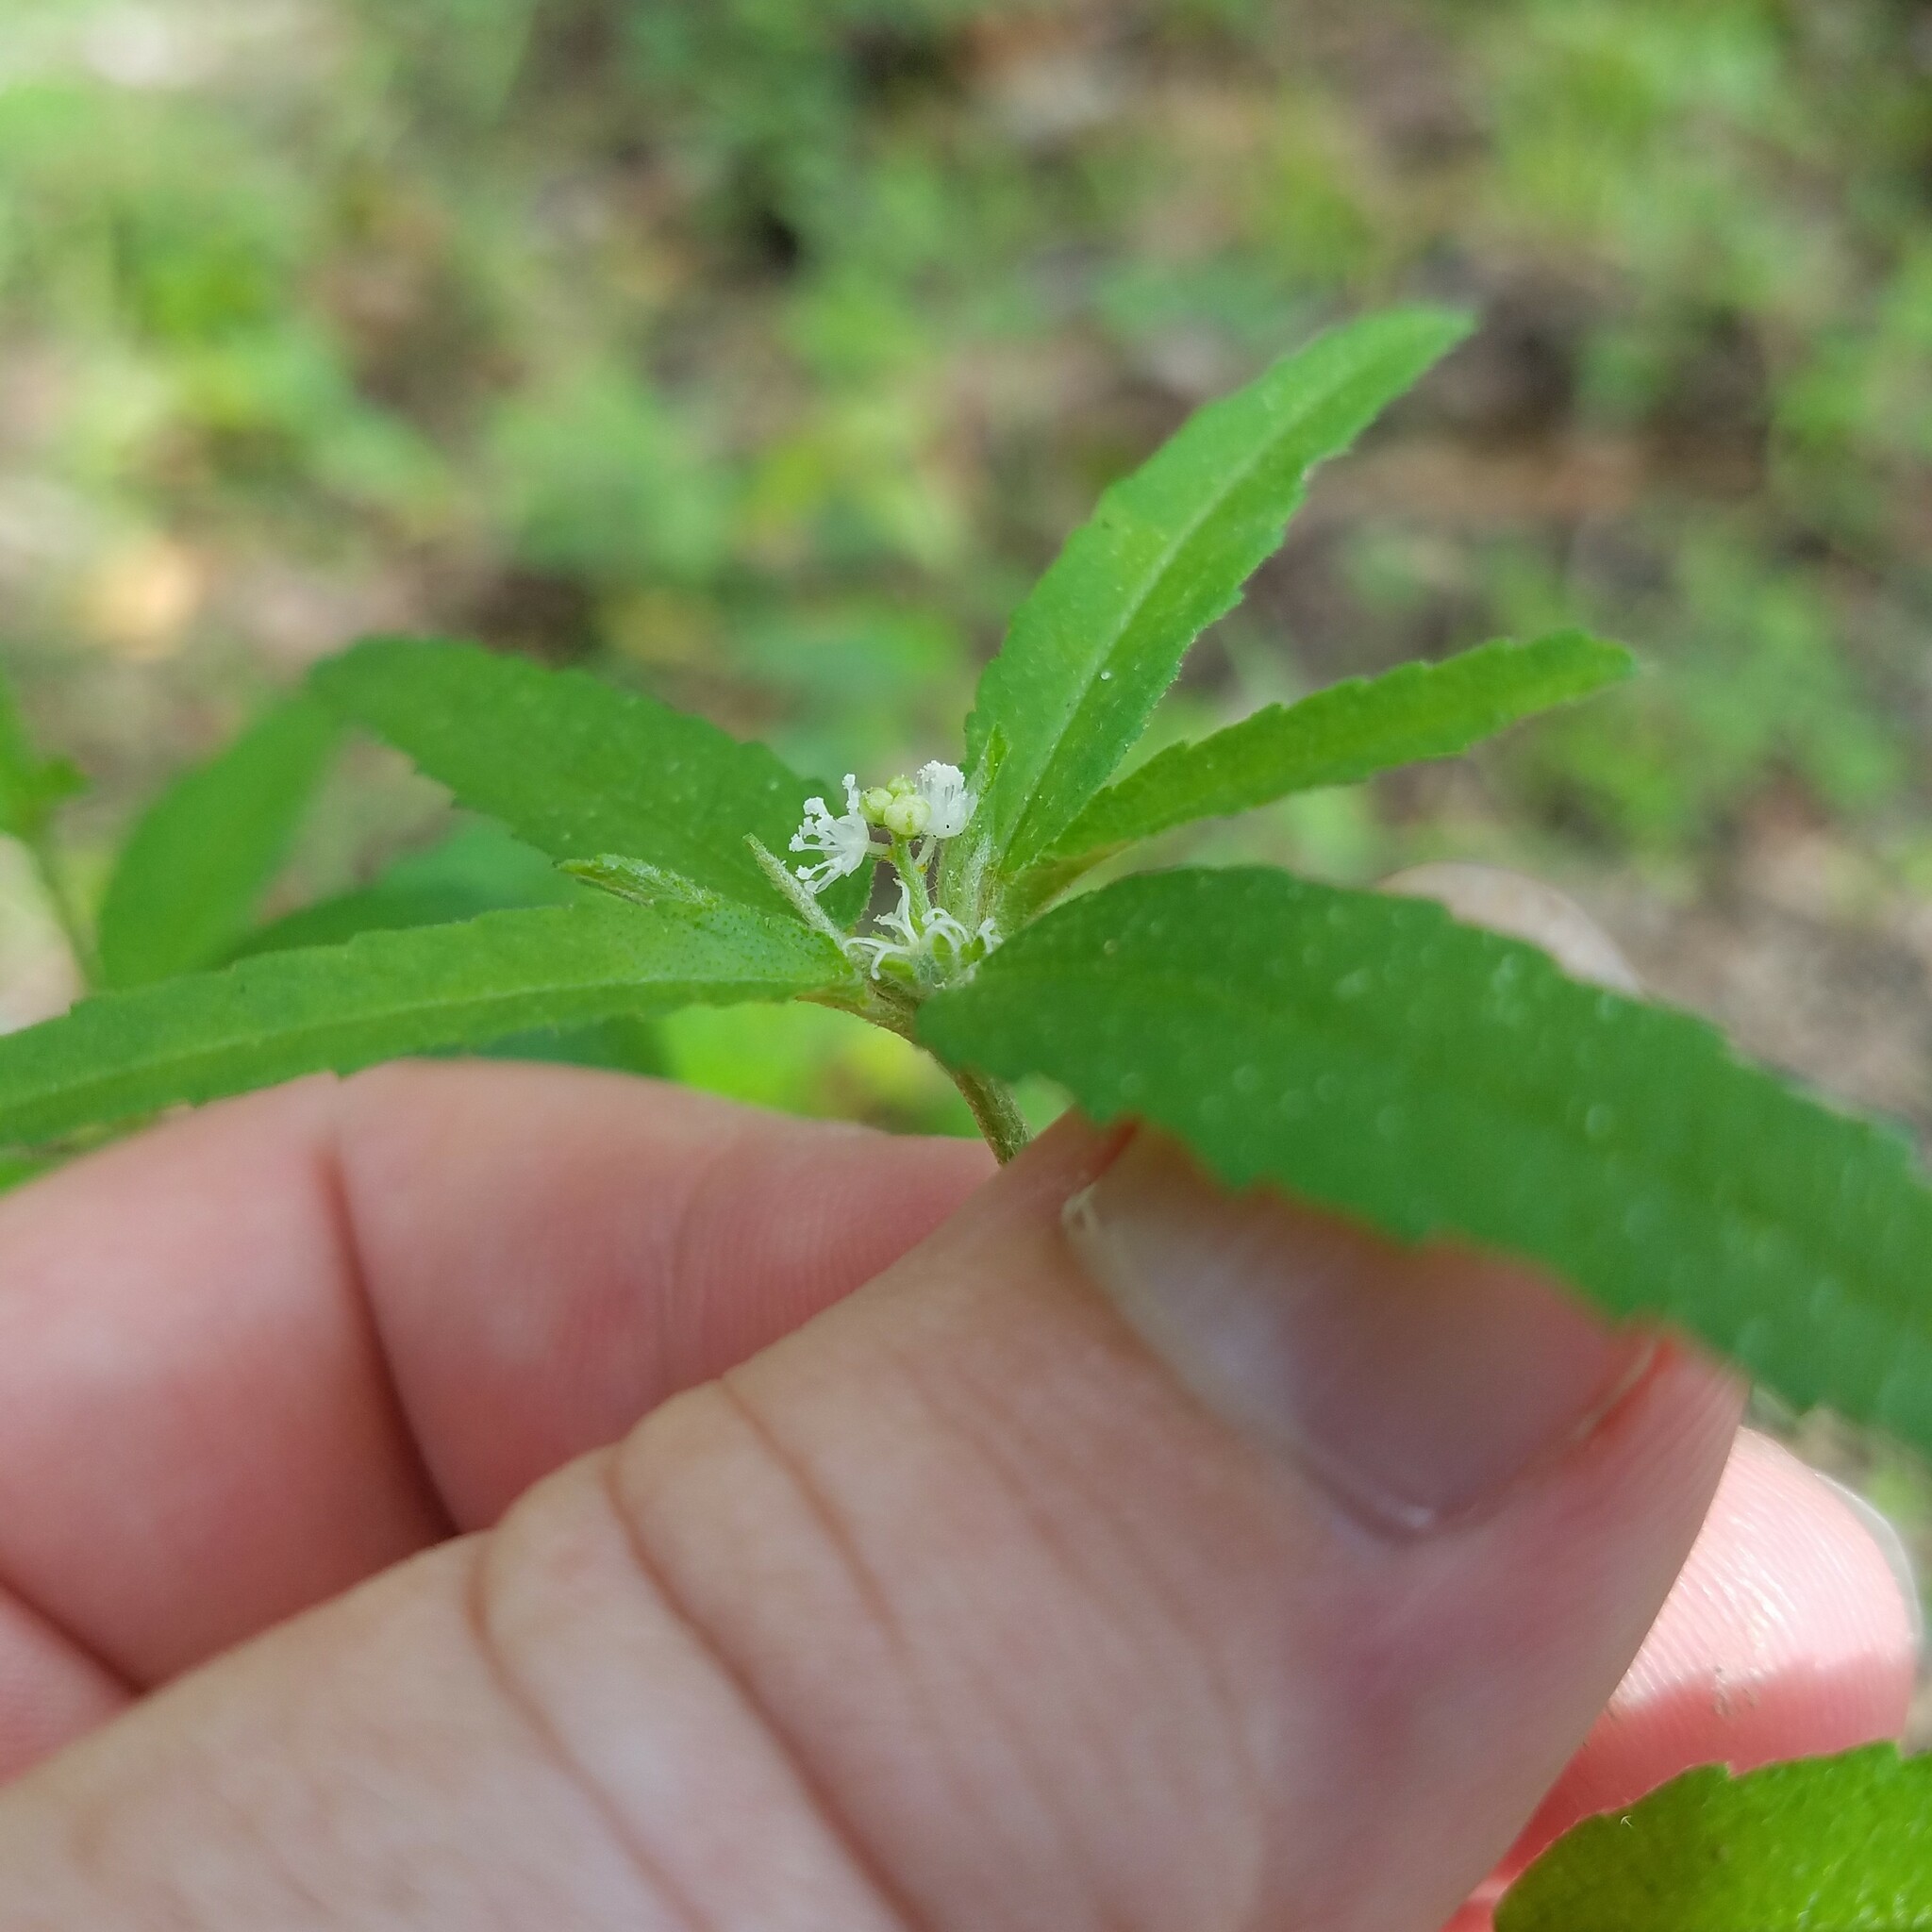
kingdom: Plantae
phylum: Tracheophyta
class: Magnoliopsida
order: Malpighiales
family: Euphorbiaceae
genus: Croton
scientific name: Croton glandulosus
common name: Tropic croton
